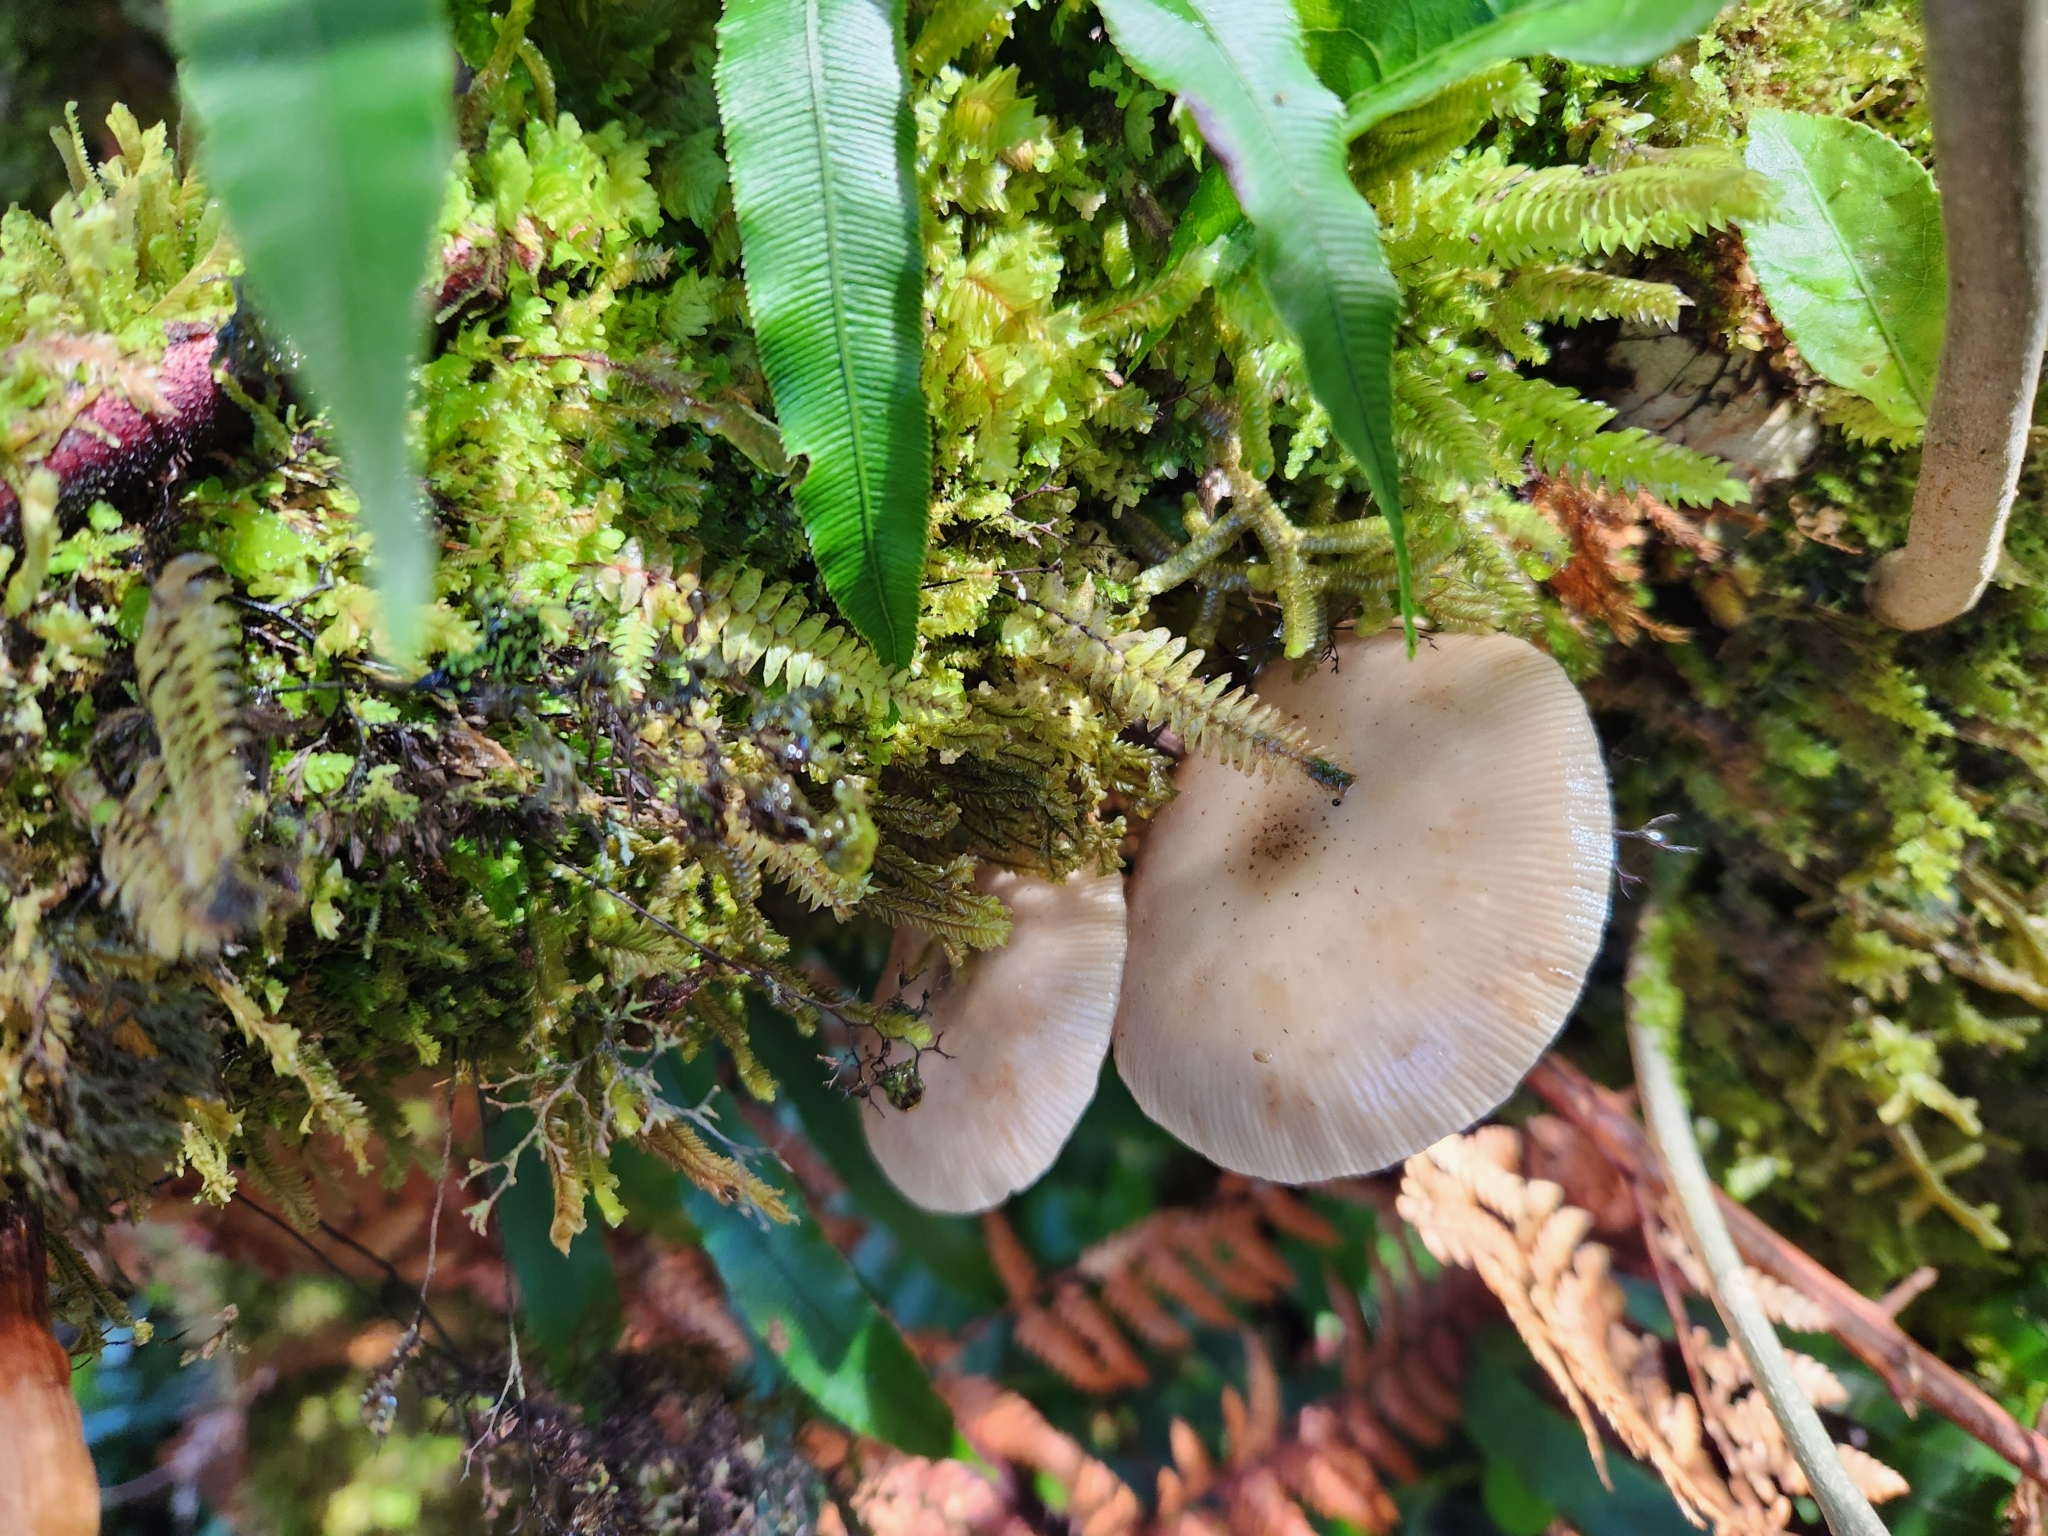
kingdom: Fungi
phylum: Basidiomycota
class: Agaricomycetes
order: Agaricales
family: Physalacriaceae
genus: Armillaria
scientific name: Armillaria novae-zelandiae
